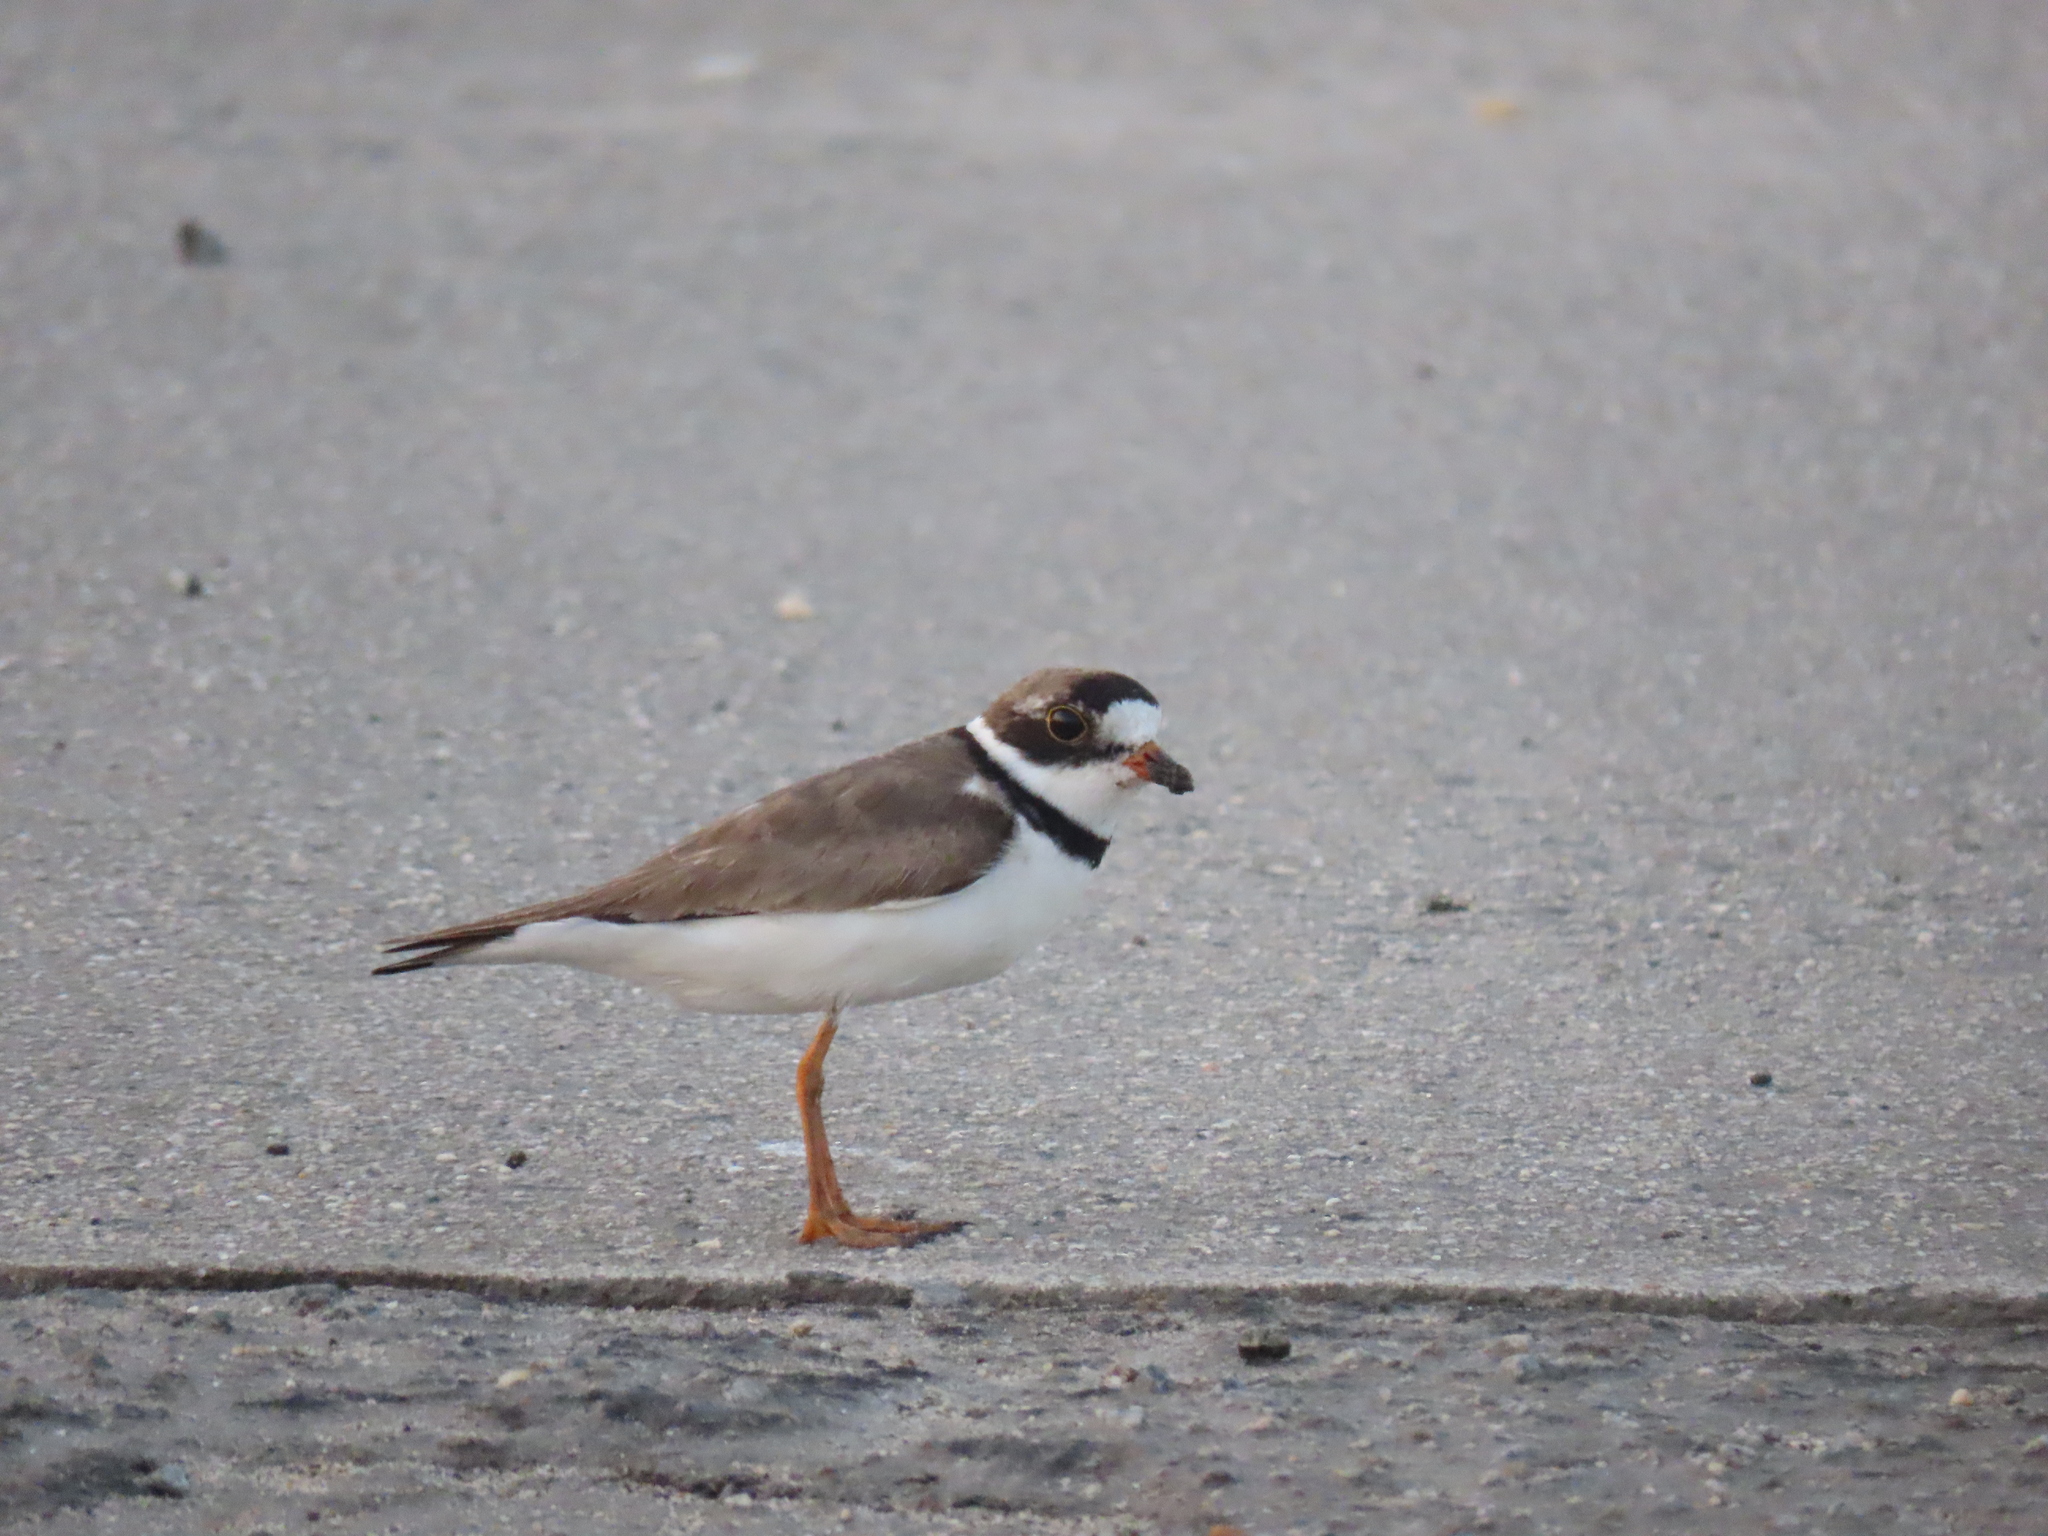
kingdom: Animalia
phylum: Chordata
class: Aves
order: Charadriiformes
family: Charadriidae
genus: Charadrius
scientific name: Charadrius semipalmatus
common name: Semipalmated plover
